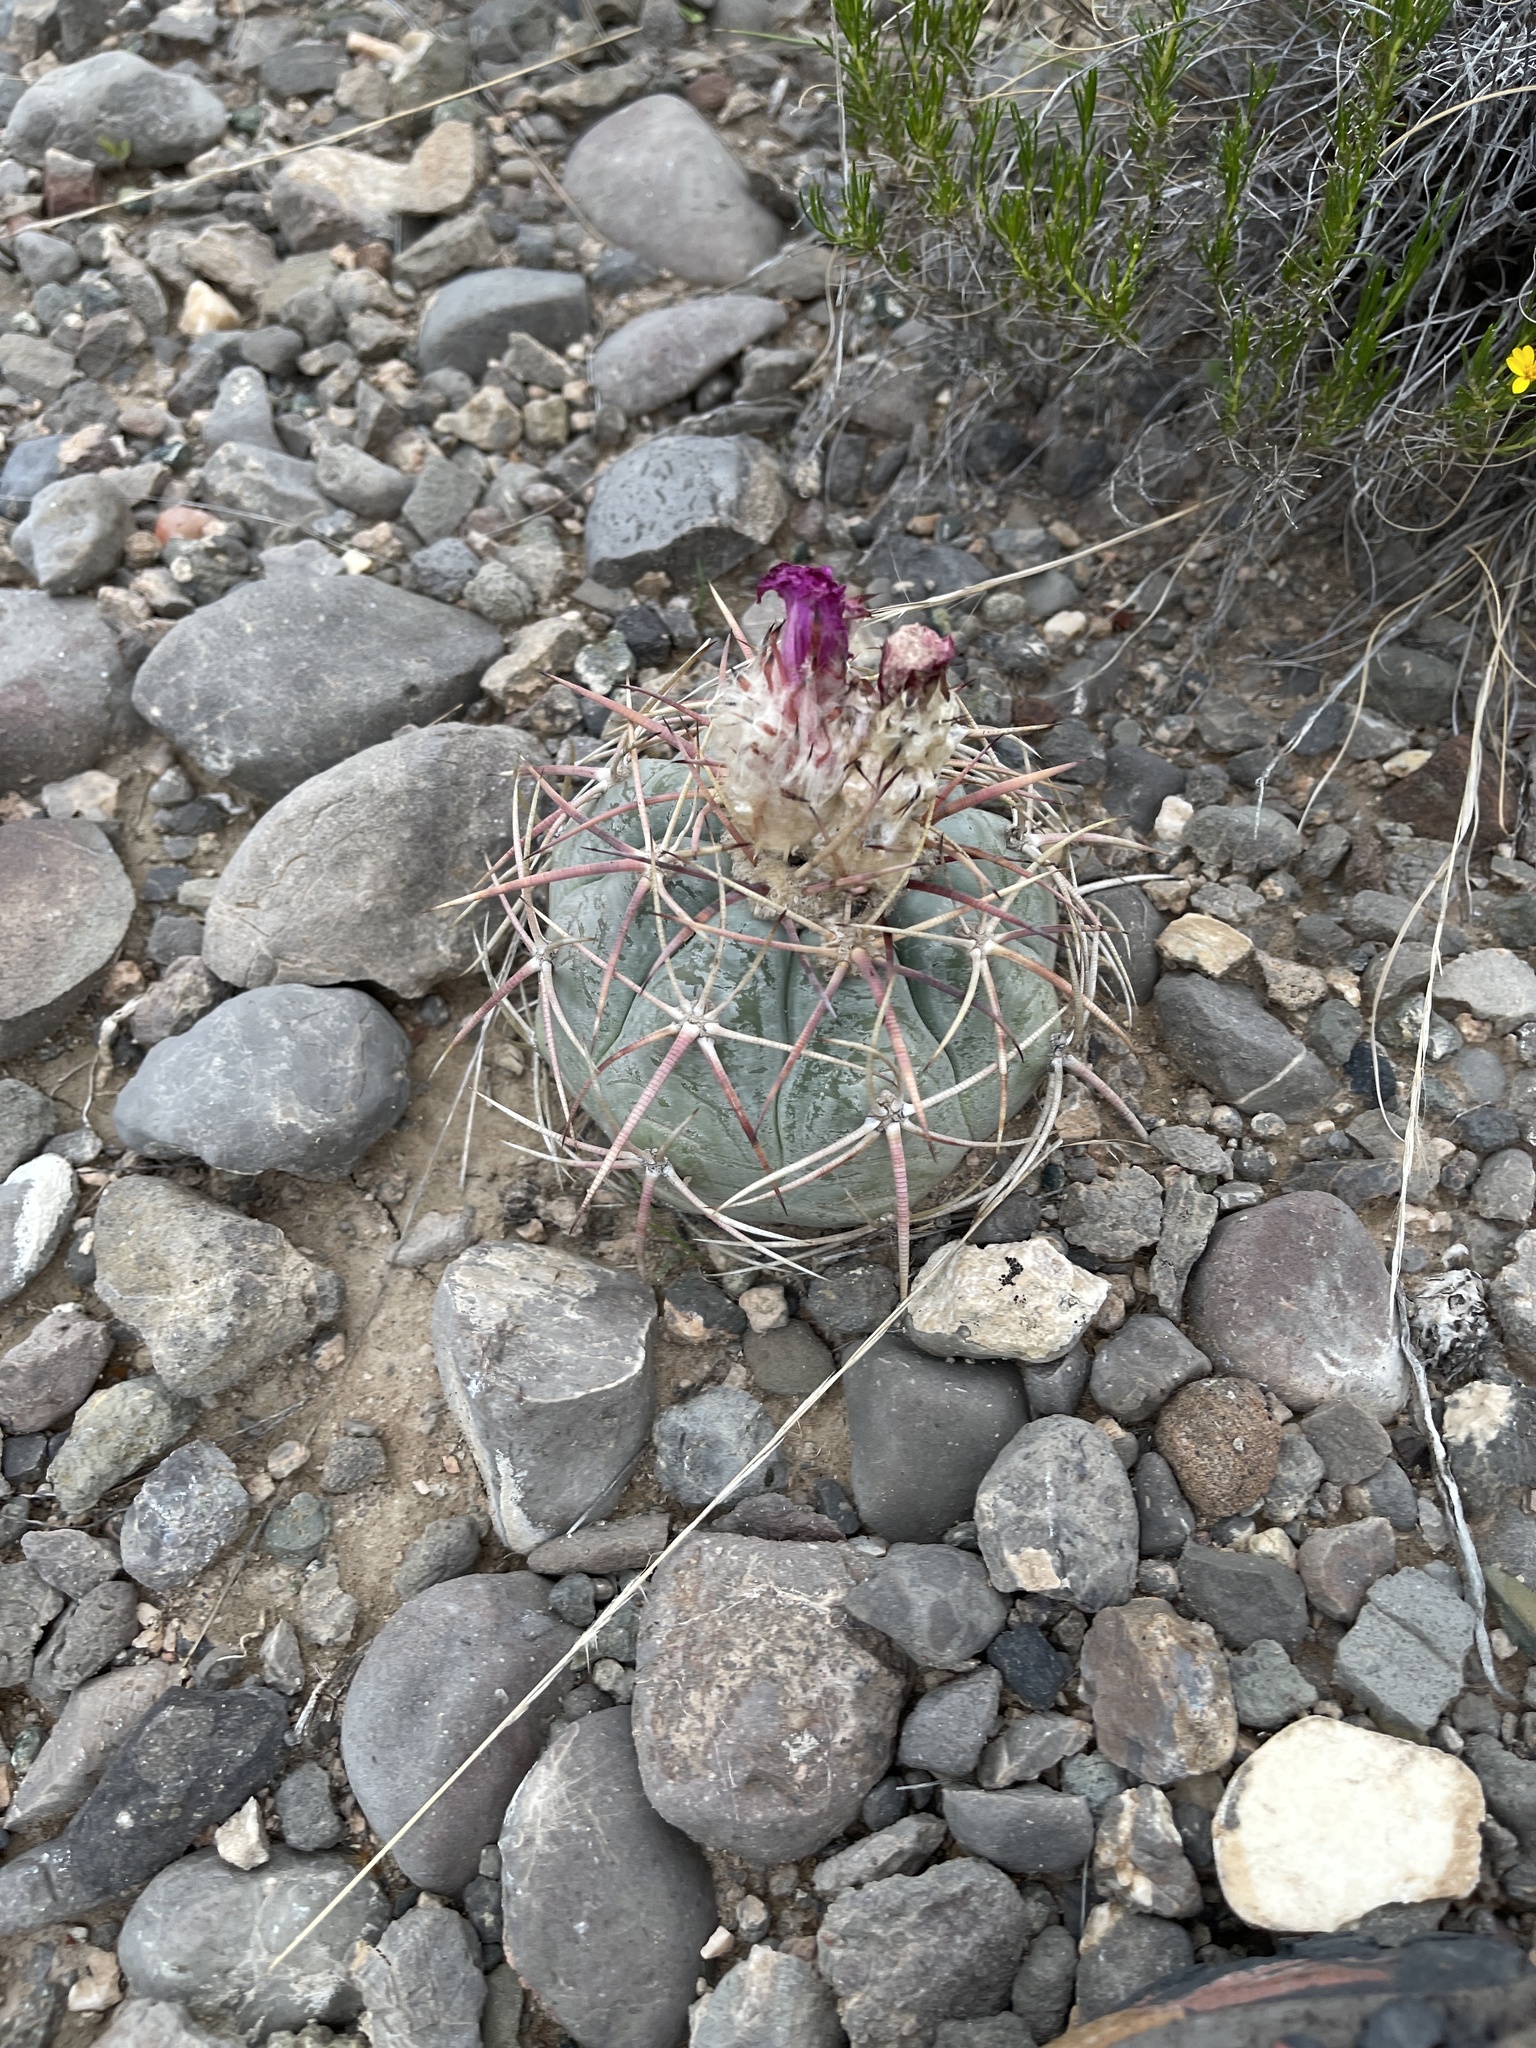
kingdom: Plantae
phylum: Tracheophyta
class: Magnoliopsida
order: Caryophyllales
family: Cactaceae
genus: Echinocactus
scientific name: Echinocactus horizonthalonius
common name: Devilshead
